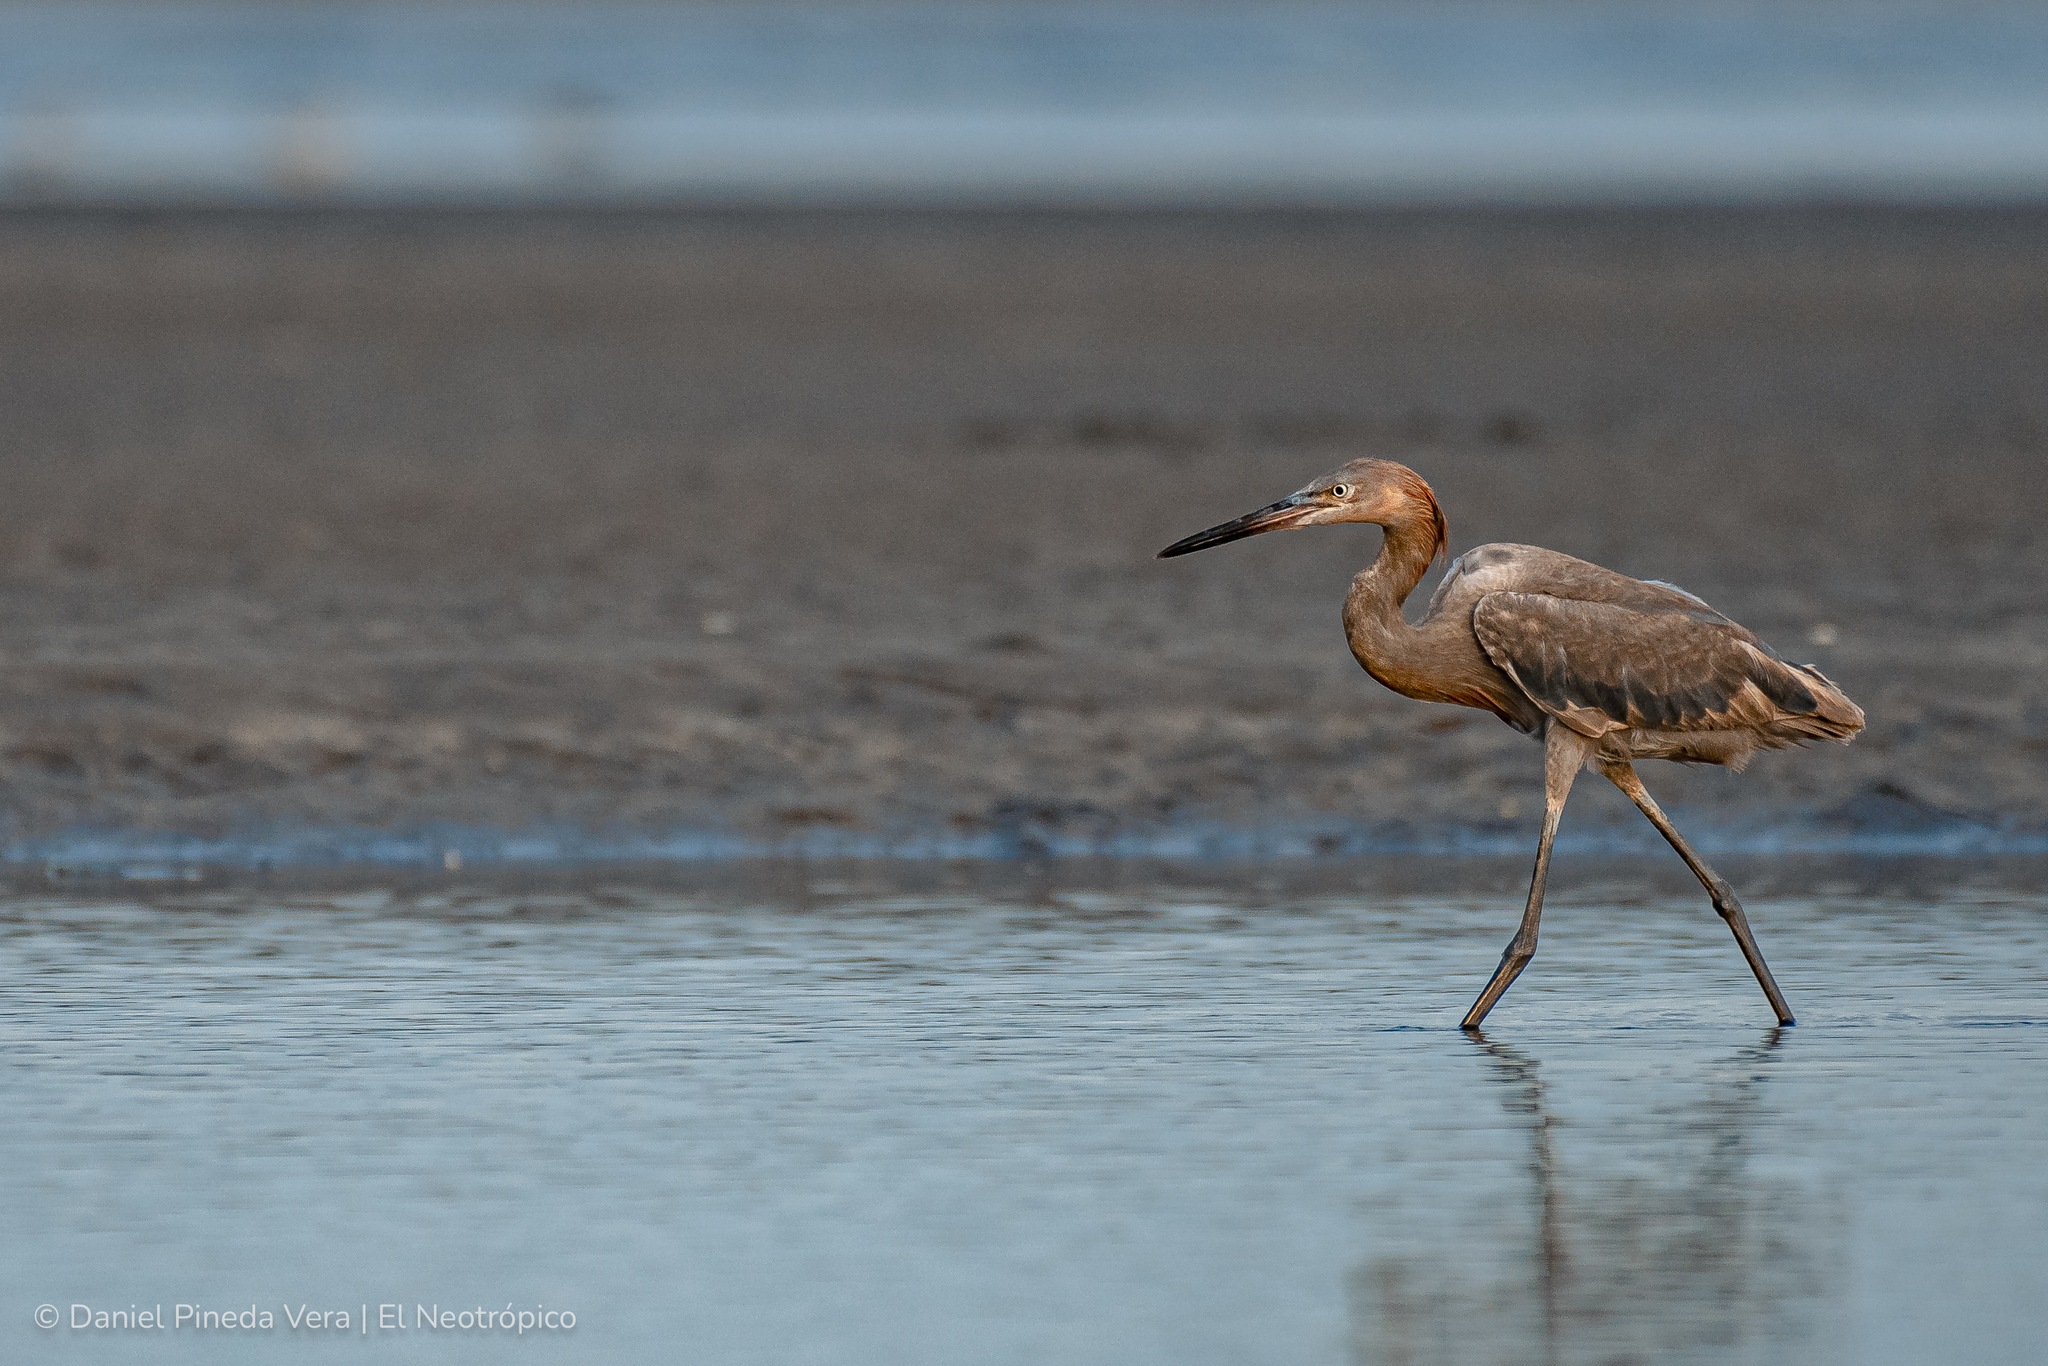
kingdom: Animalia
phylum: Chordata
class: Aves
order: Pelecaniformes
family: Ardeidae
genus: Egretta
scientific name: Egretta rufescens
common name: Reddish egret
